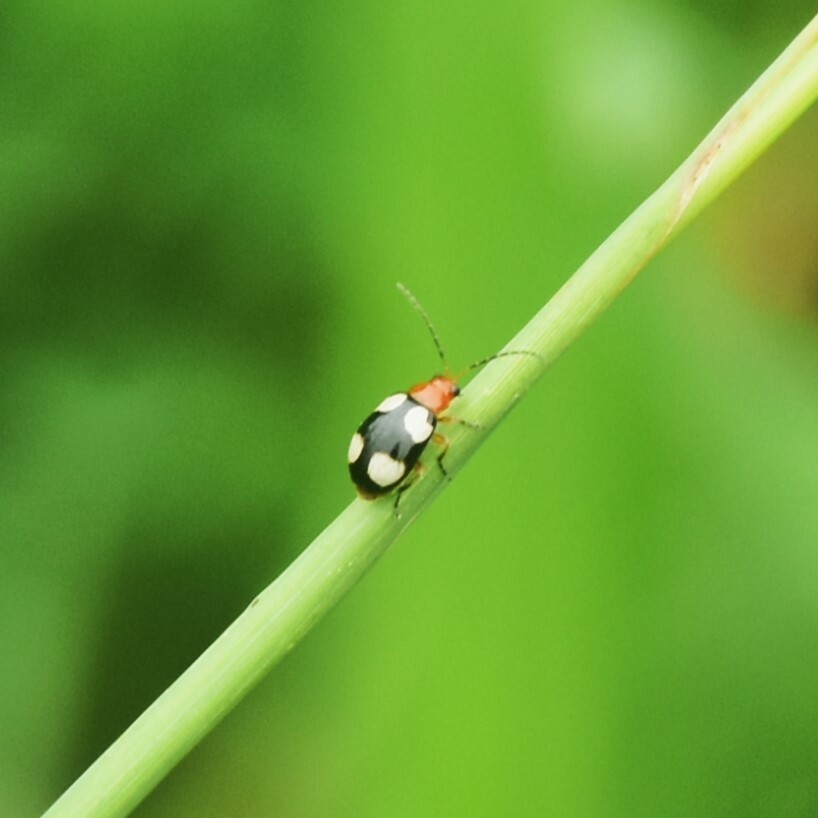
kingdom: Animalia
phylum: Arthropoda
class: Insecta
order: Coleoptera
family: Chrysomelidae
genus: Monolepta
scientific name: Monolepta signata
